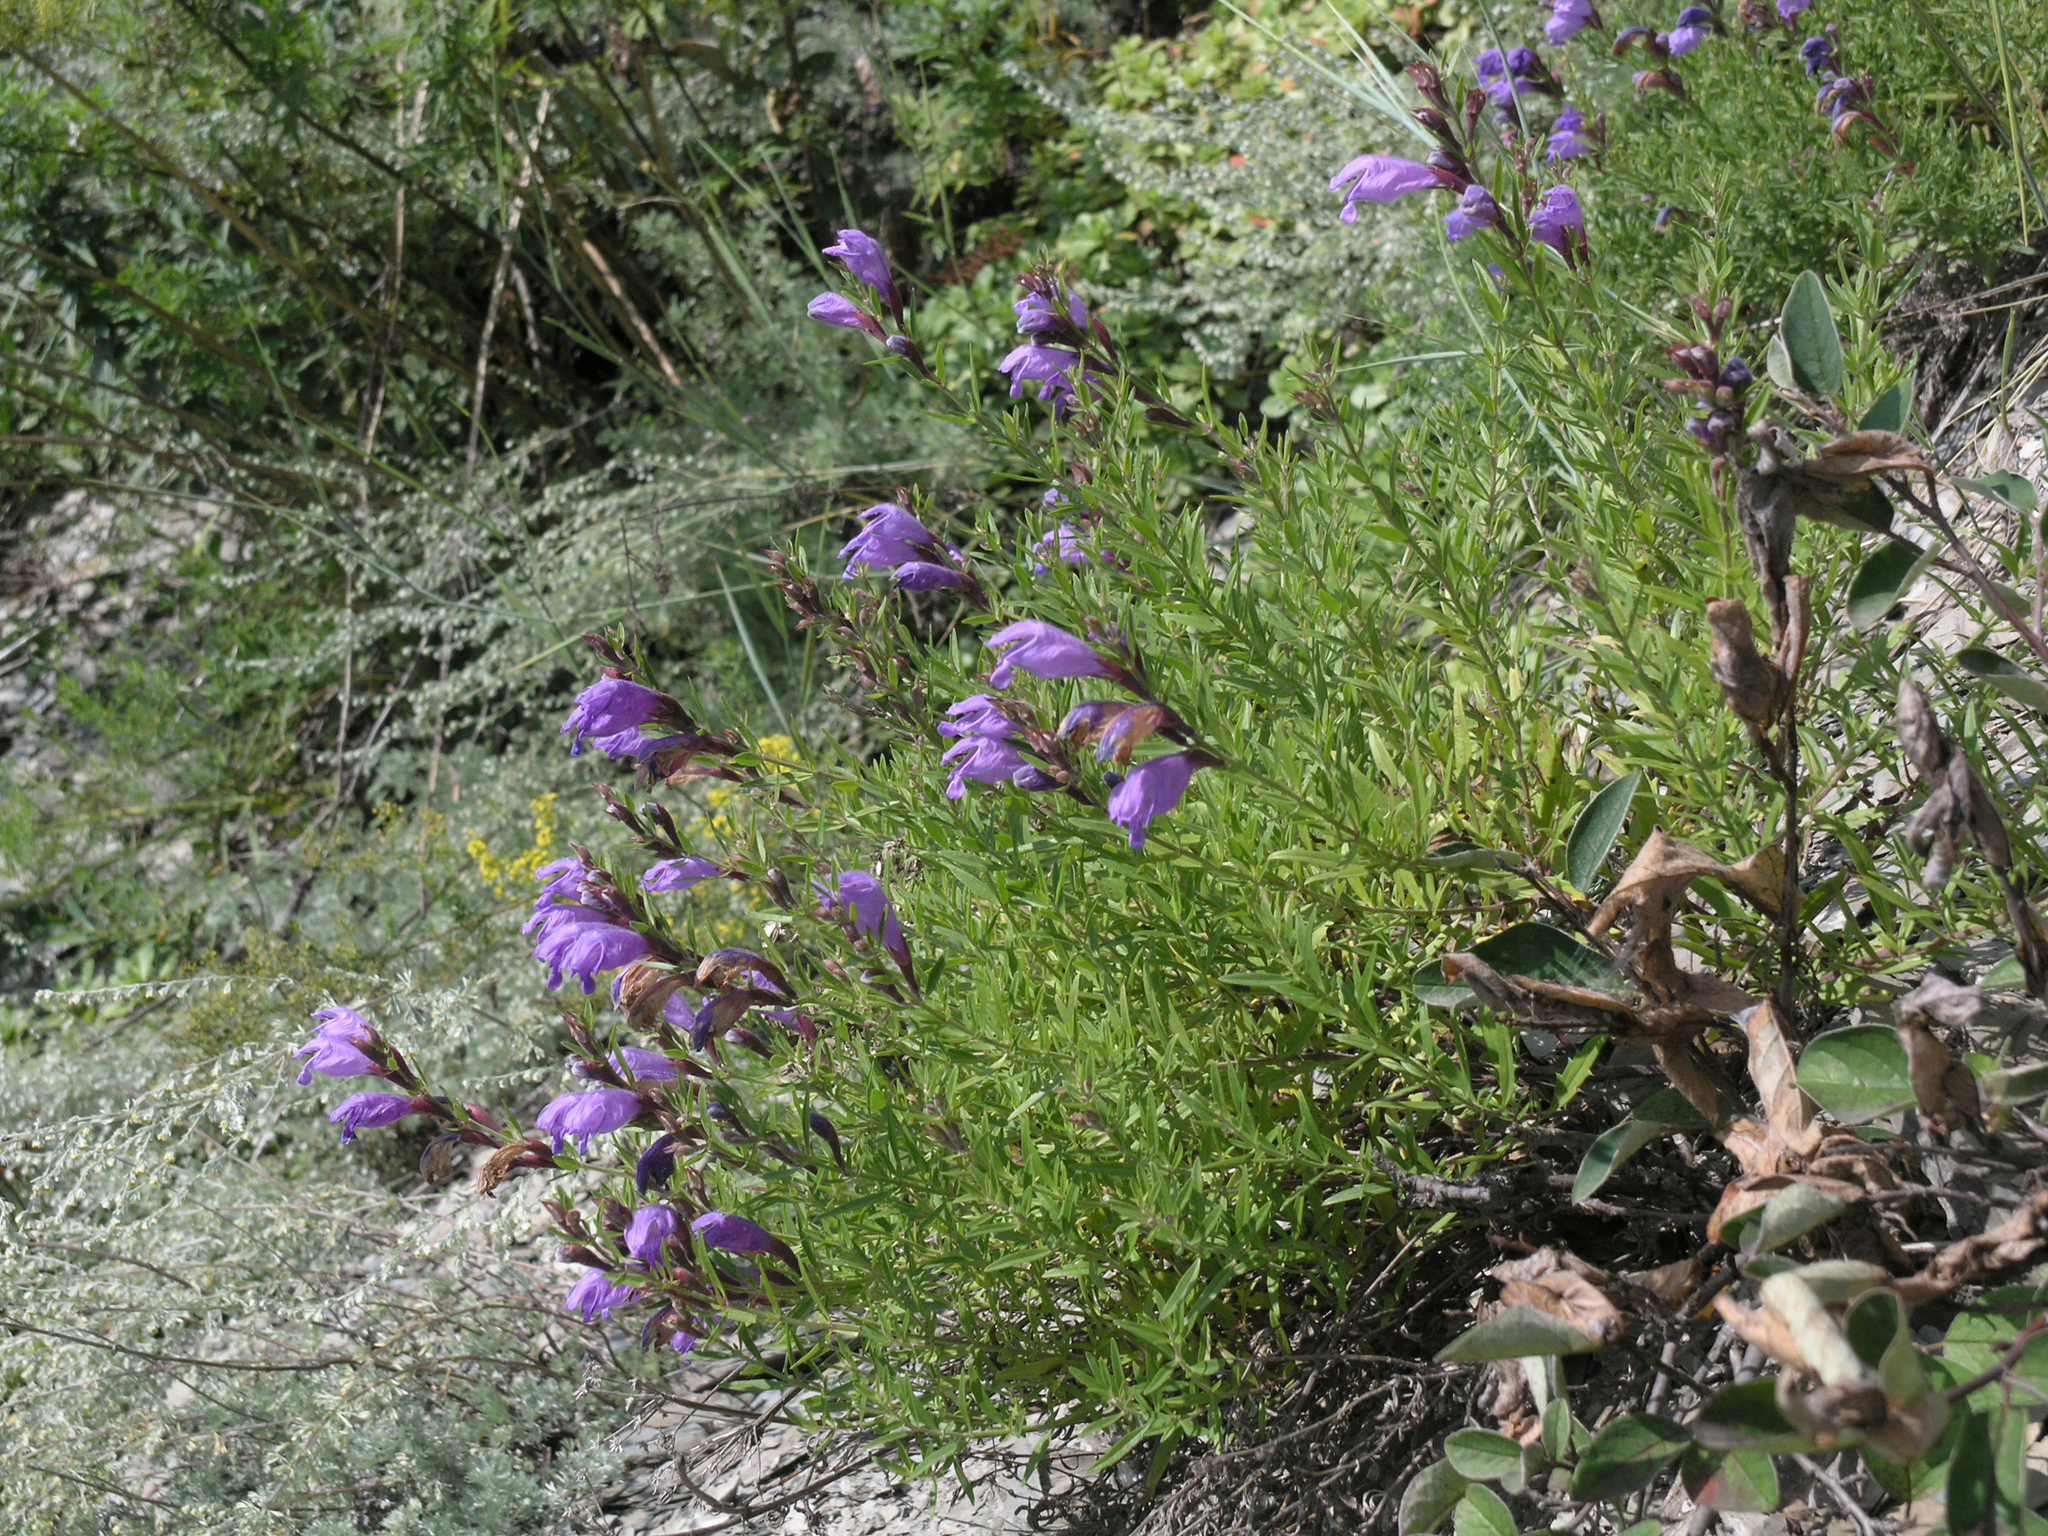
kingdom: Plantae
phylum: Tracheophyta
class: Magnoliopsida
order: Lamiales
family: Lamiaceae
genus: Dracocephalum
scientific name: Dracocephalum peregrinum
